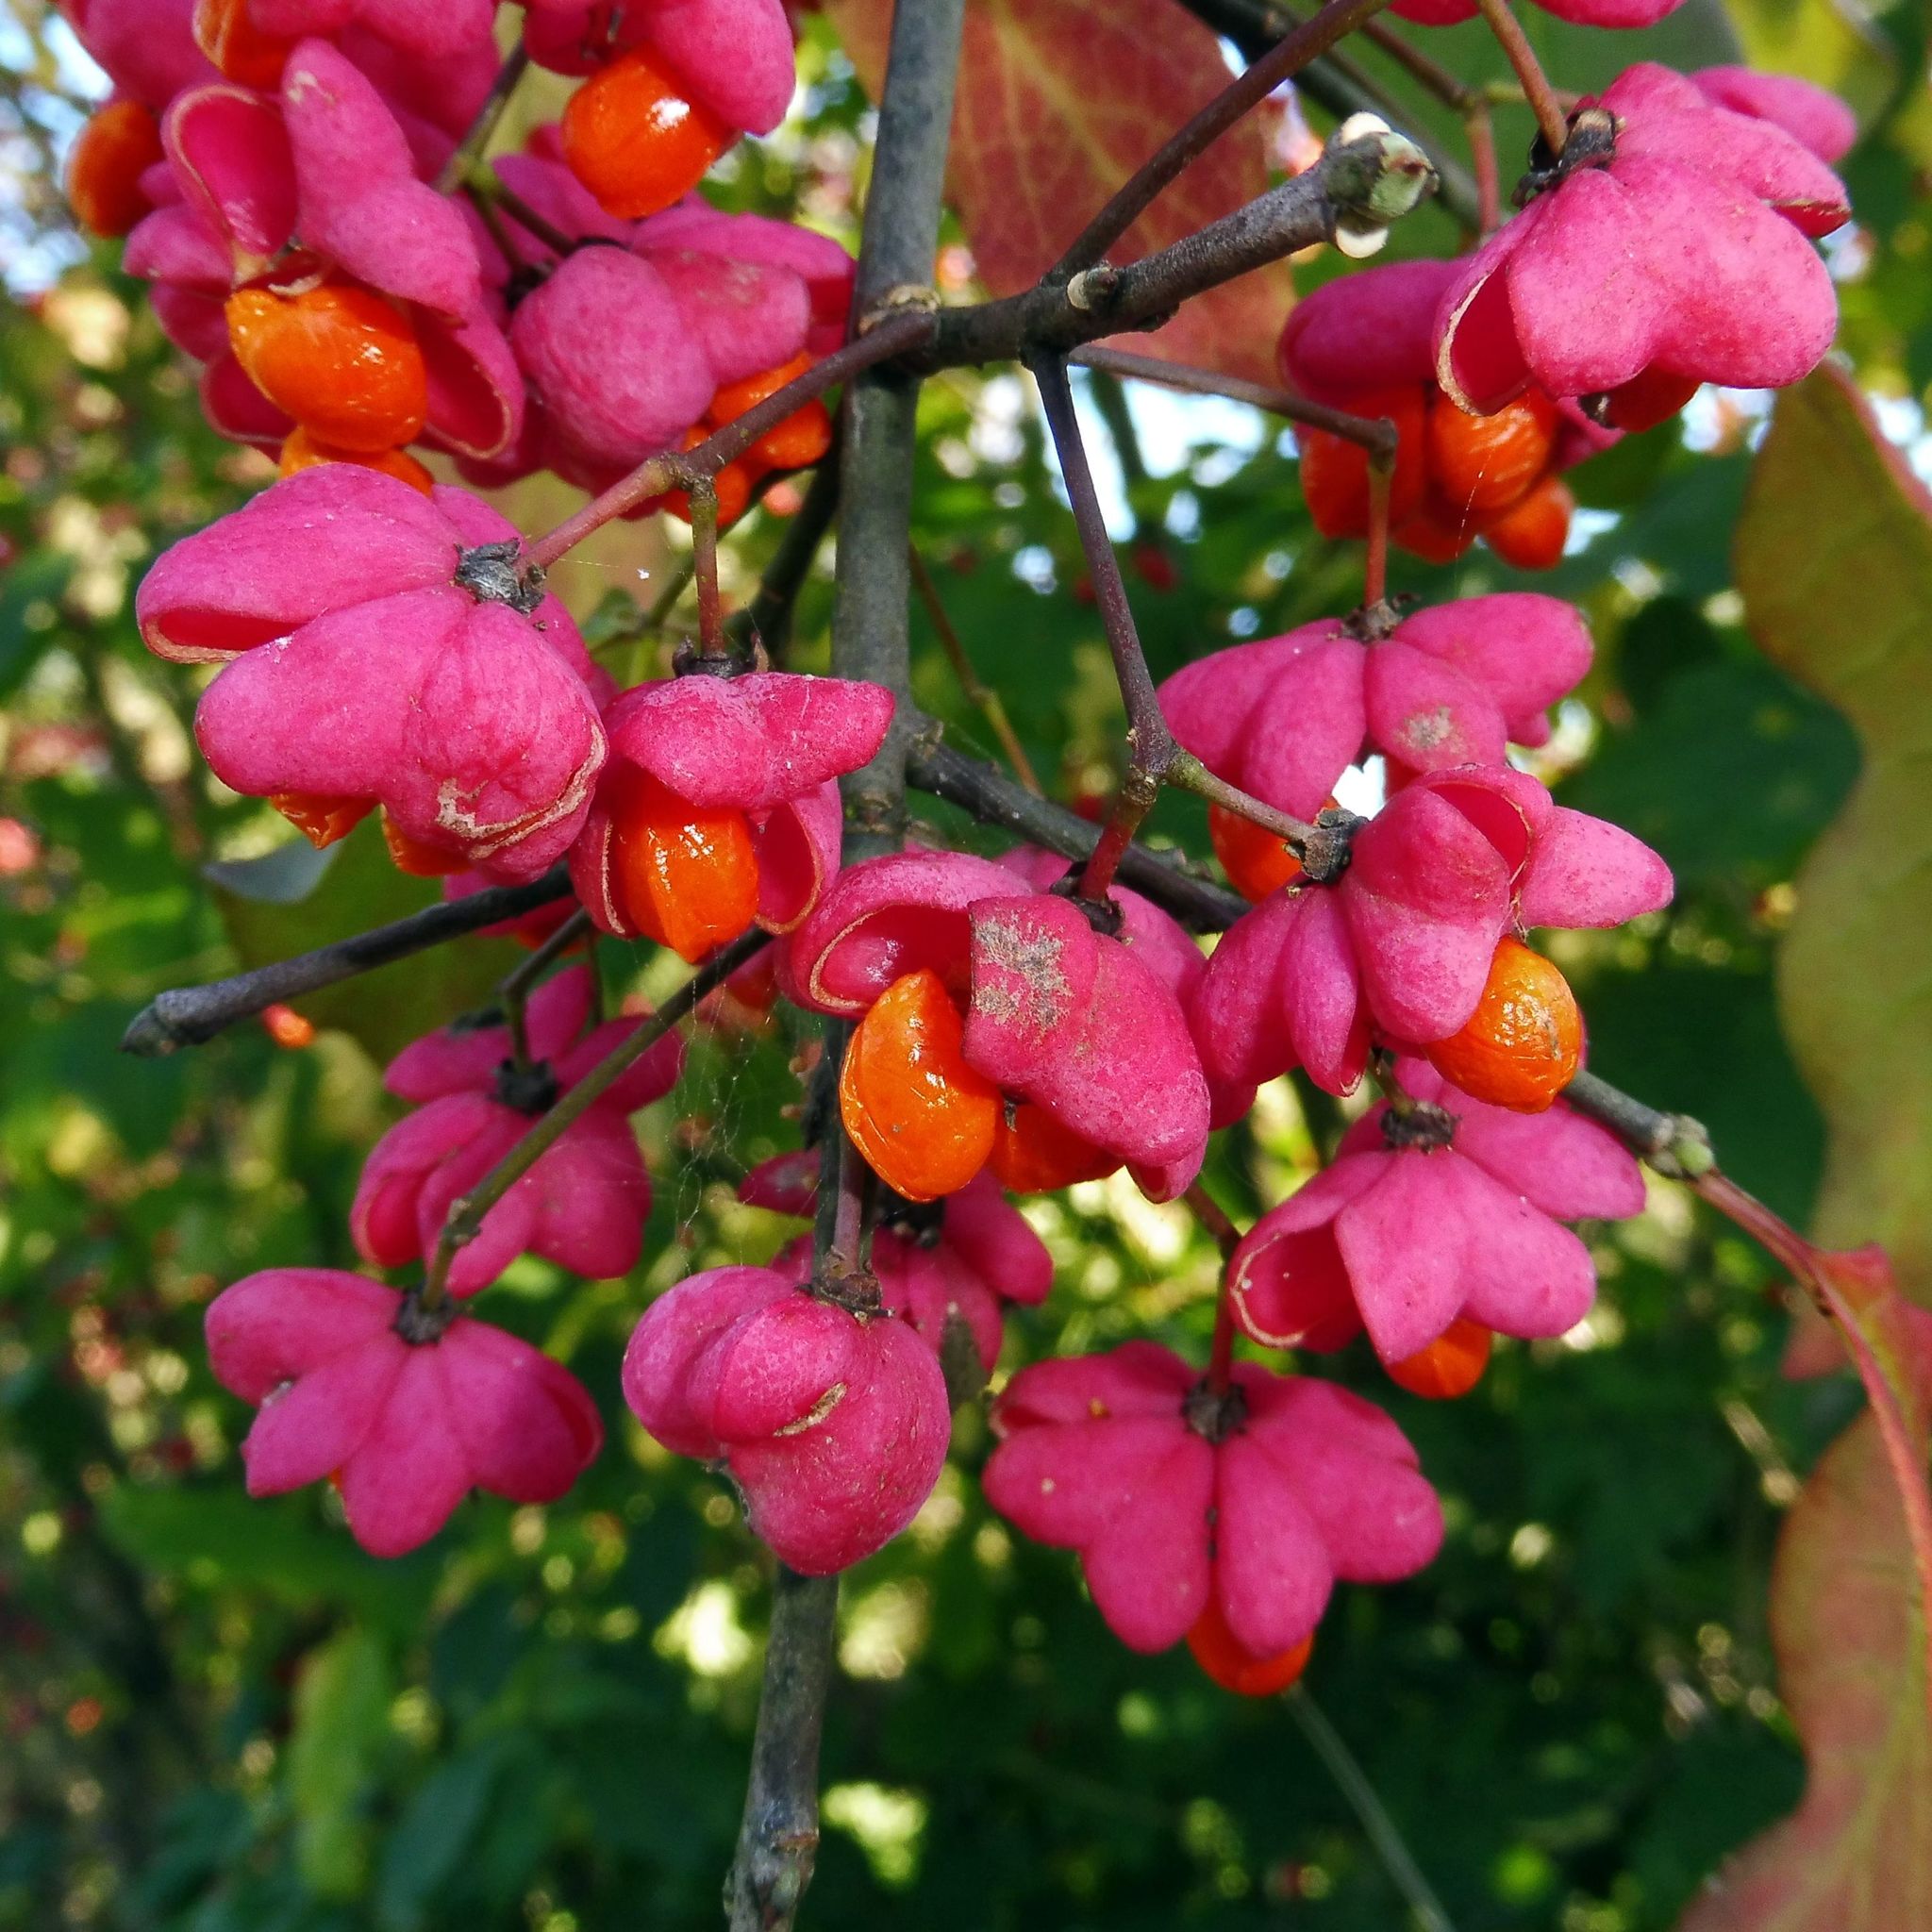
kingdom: Plantae
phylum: Tracheophyta
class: Magnoliopsida
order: Celastrales
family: Celastraceae
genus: Euonymus
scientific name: Euonymus europaeus
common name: Spindle
